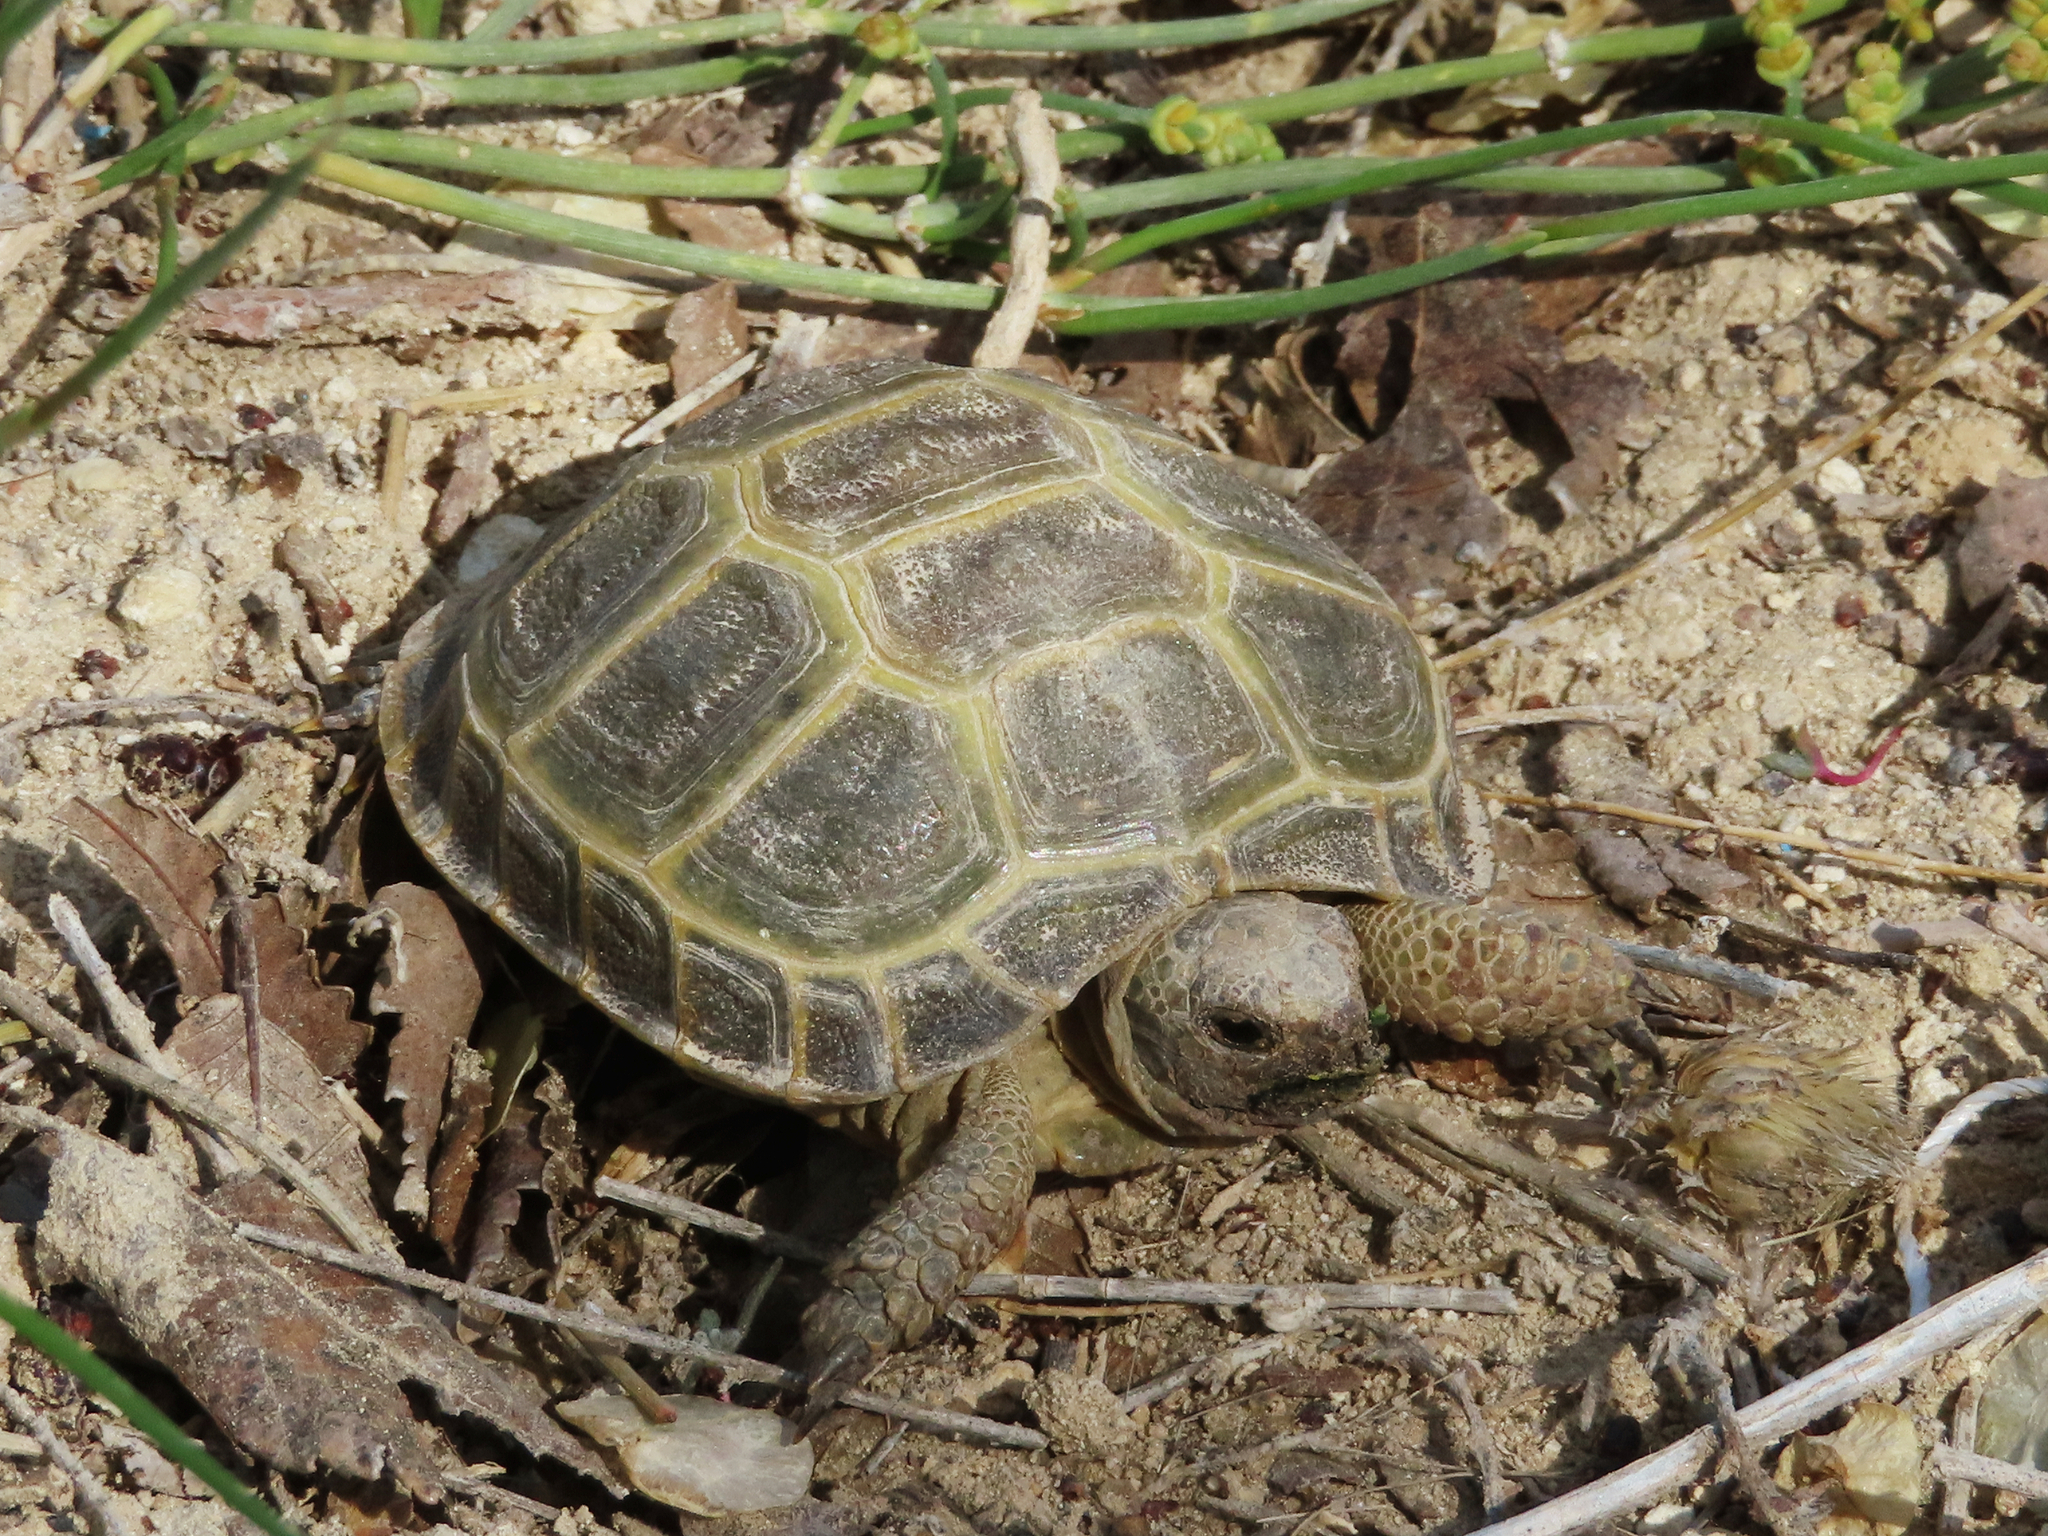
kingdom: Animalia
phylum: Chordata
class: Testudines
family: Testudinidae
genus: Testudo
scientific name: Testudo horsfieldii
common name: Central asia tortoise
